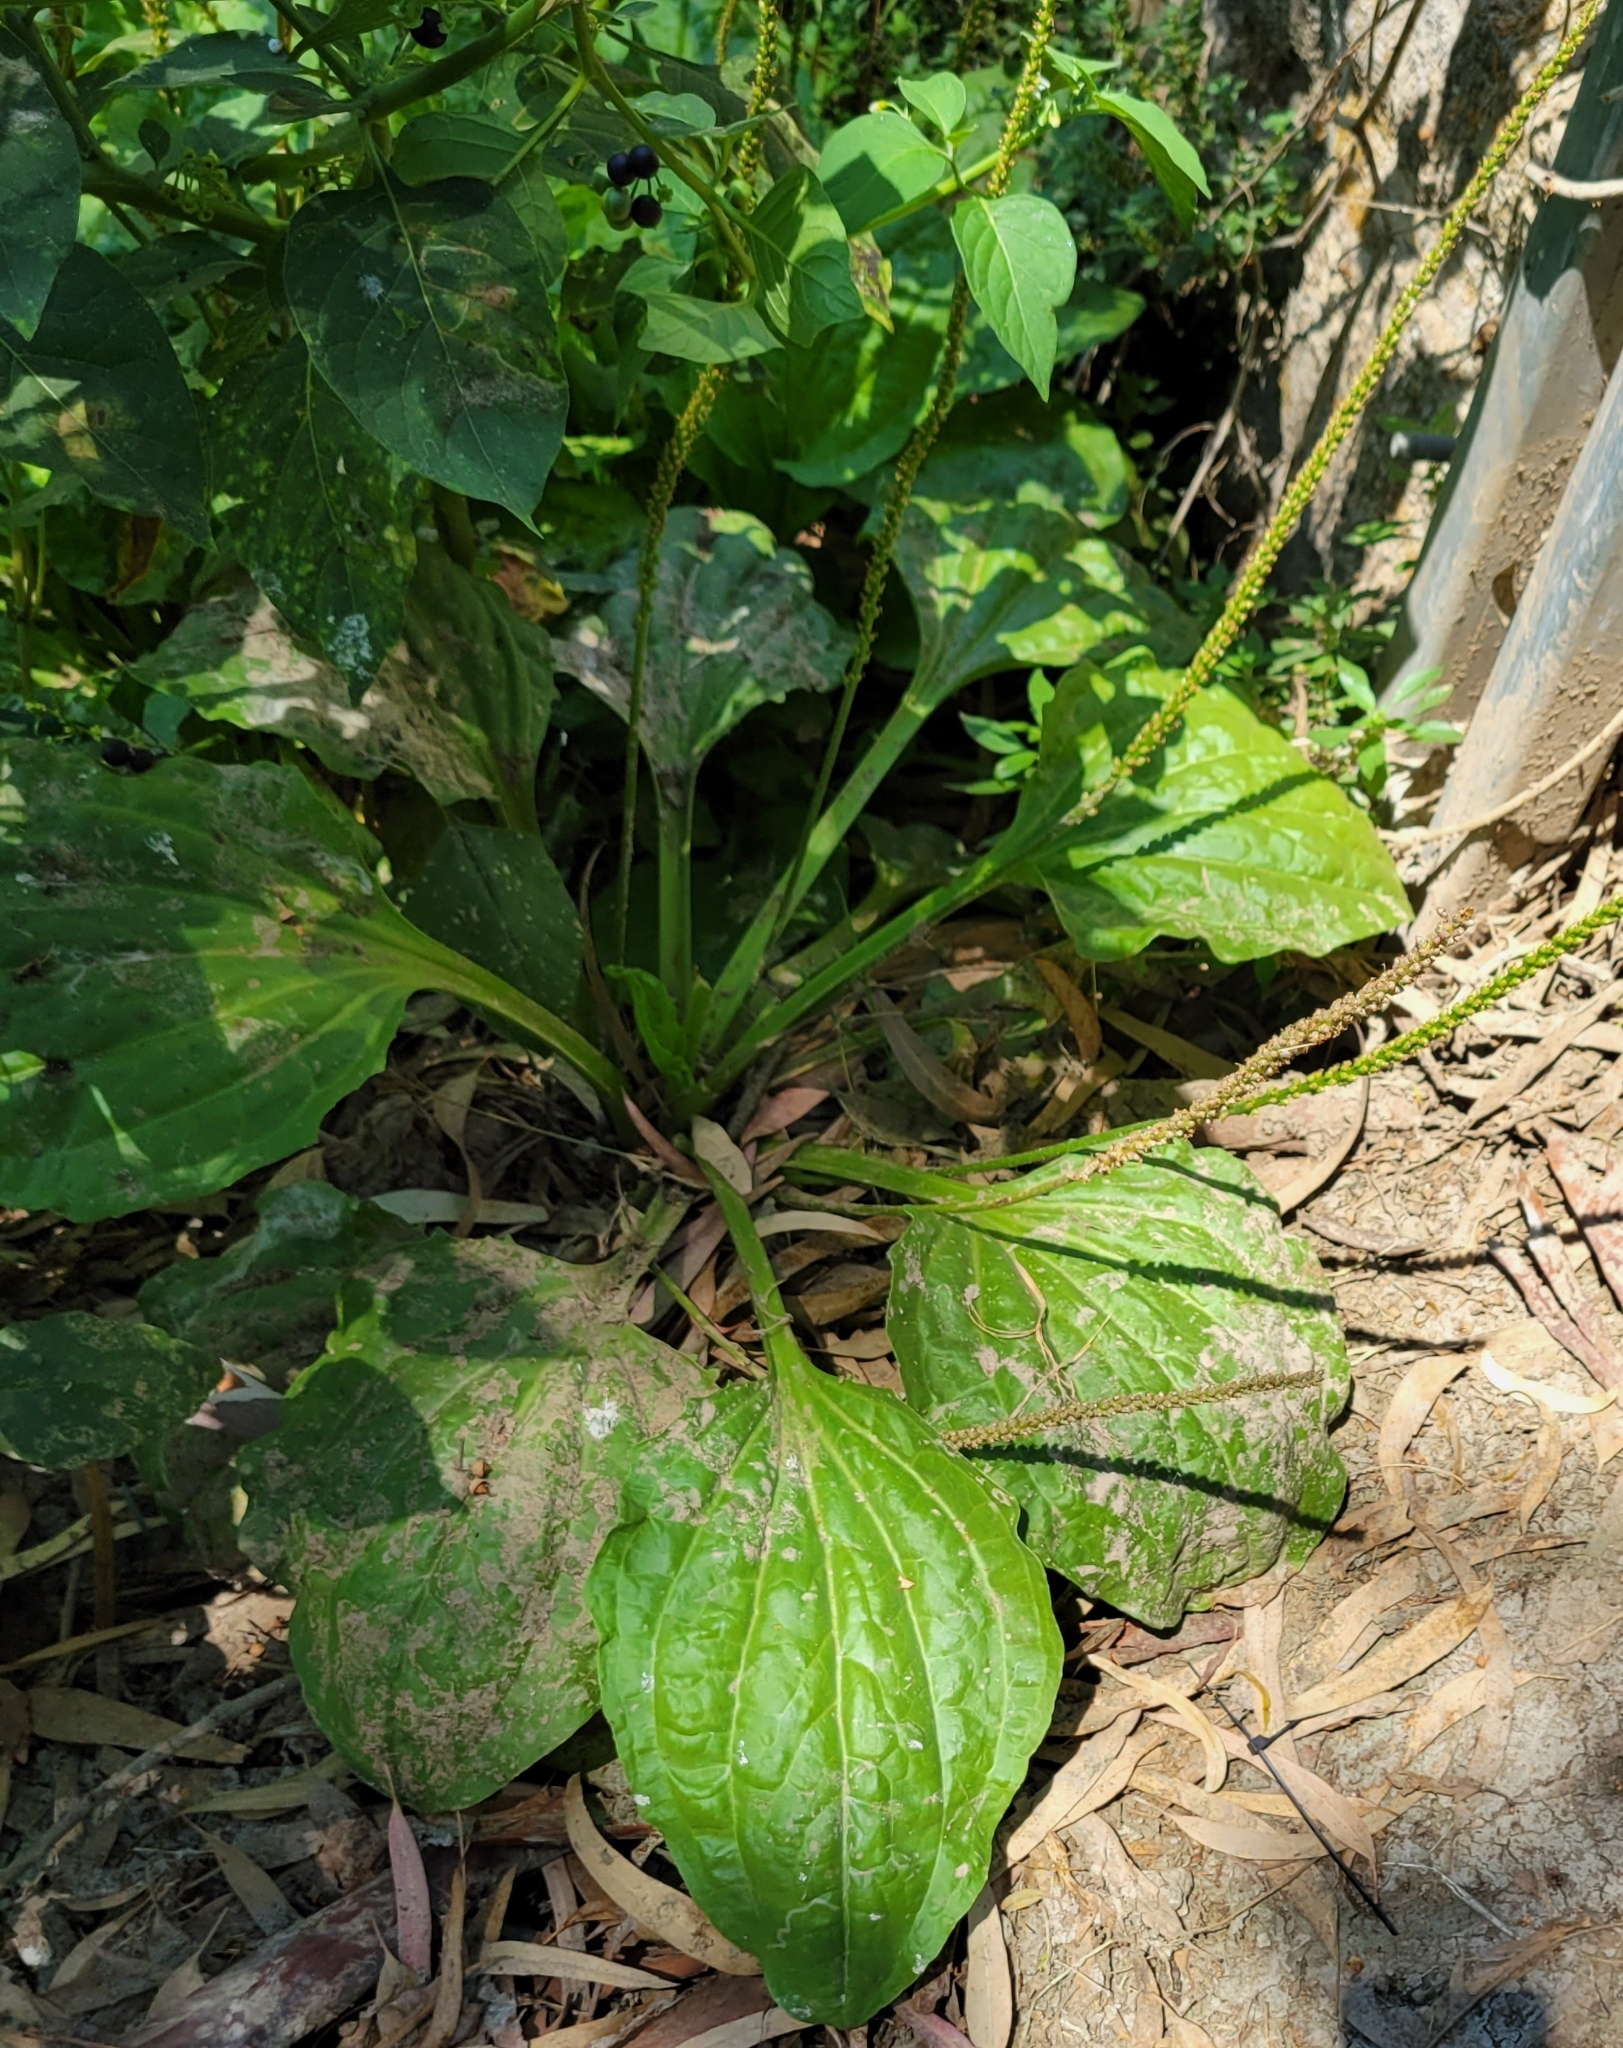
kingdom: Plantae
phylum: Tracheophyta
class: Magnoliopsida
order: Lamiales
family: Plantaginaceae
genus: Plantago
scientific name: Plantago major
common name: Common plantain
